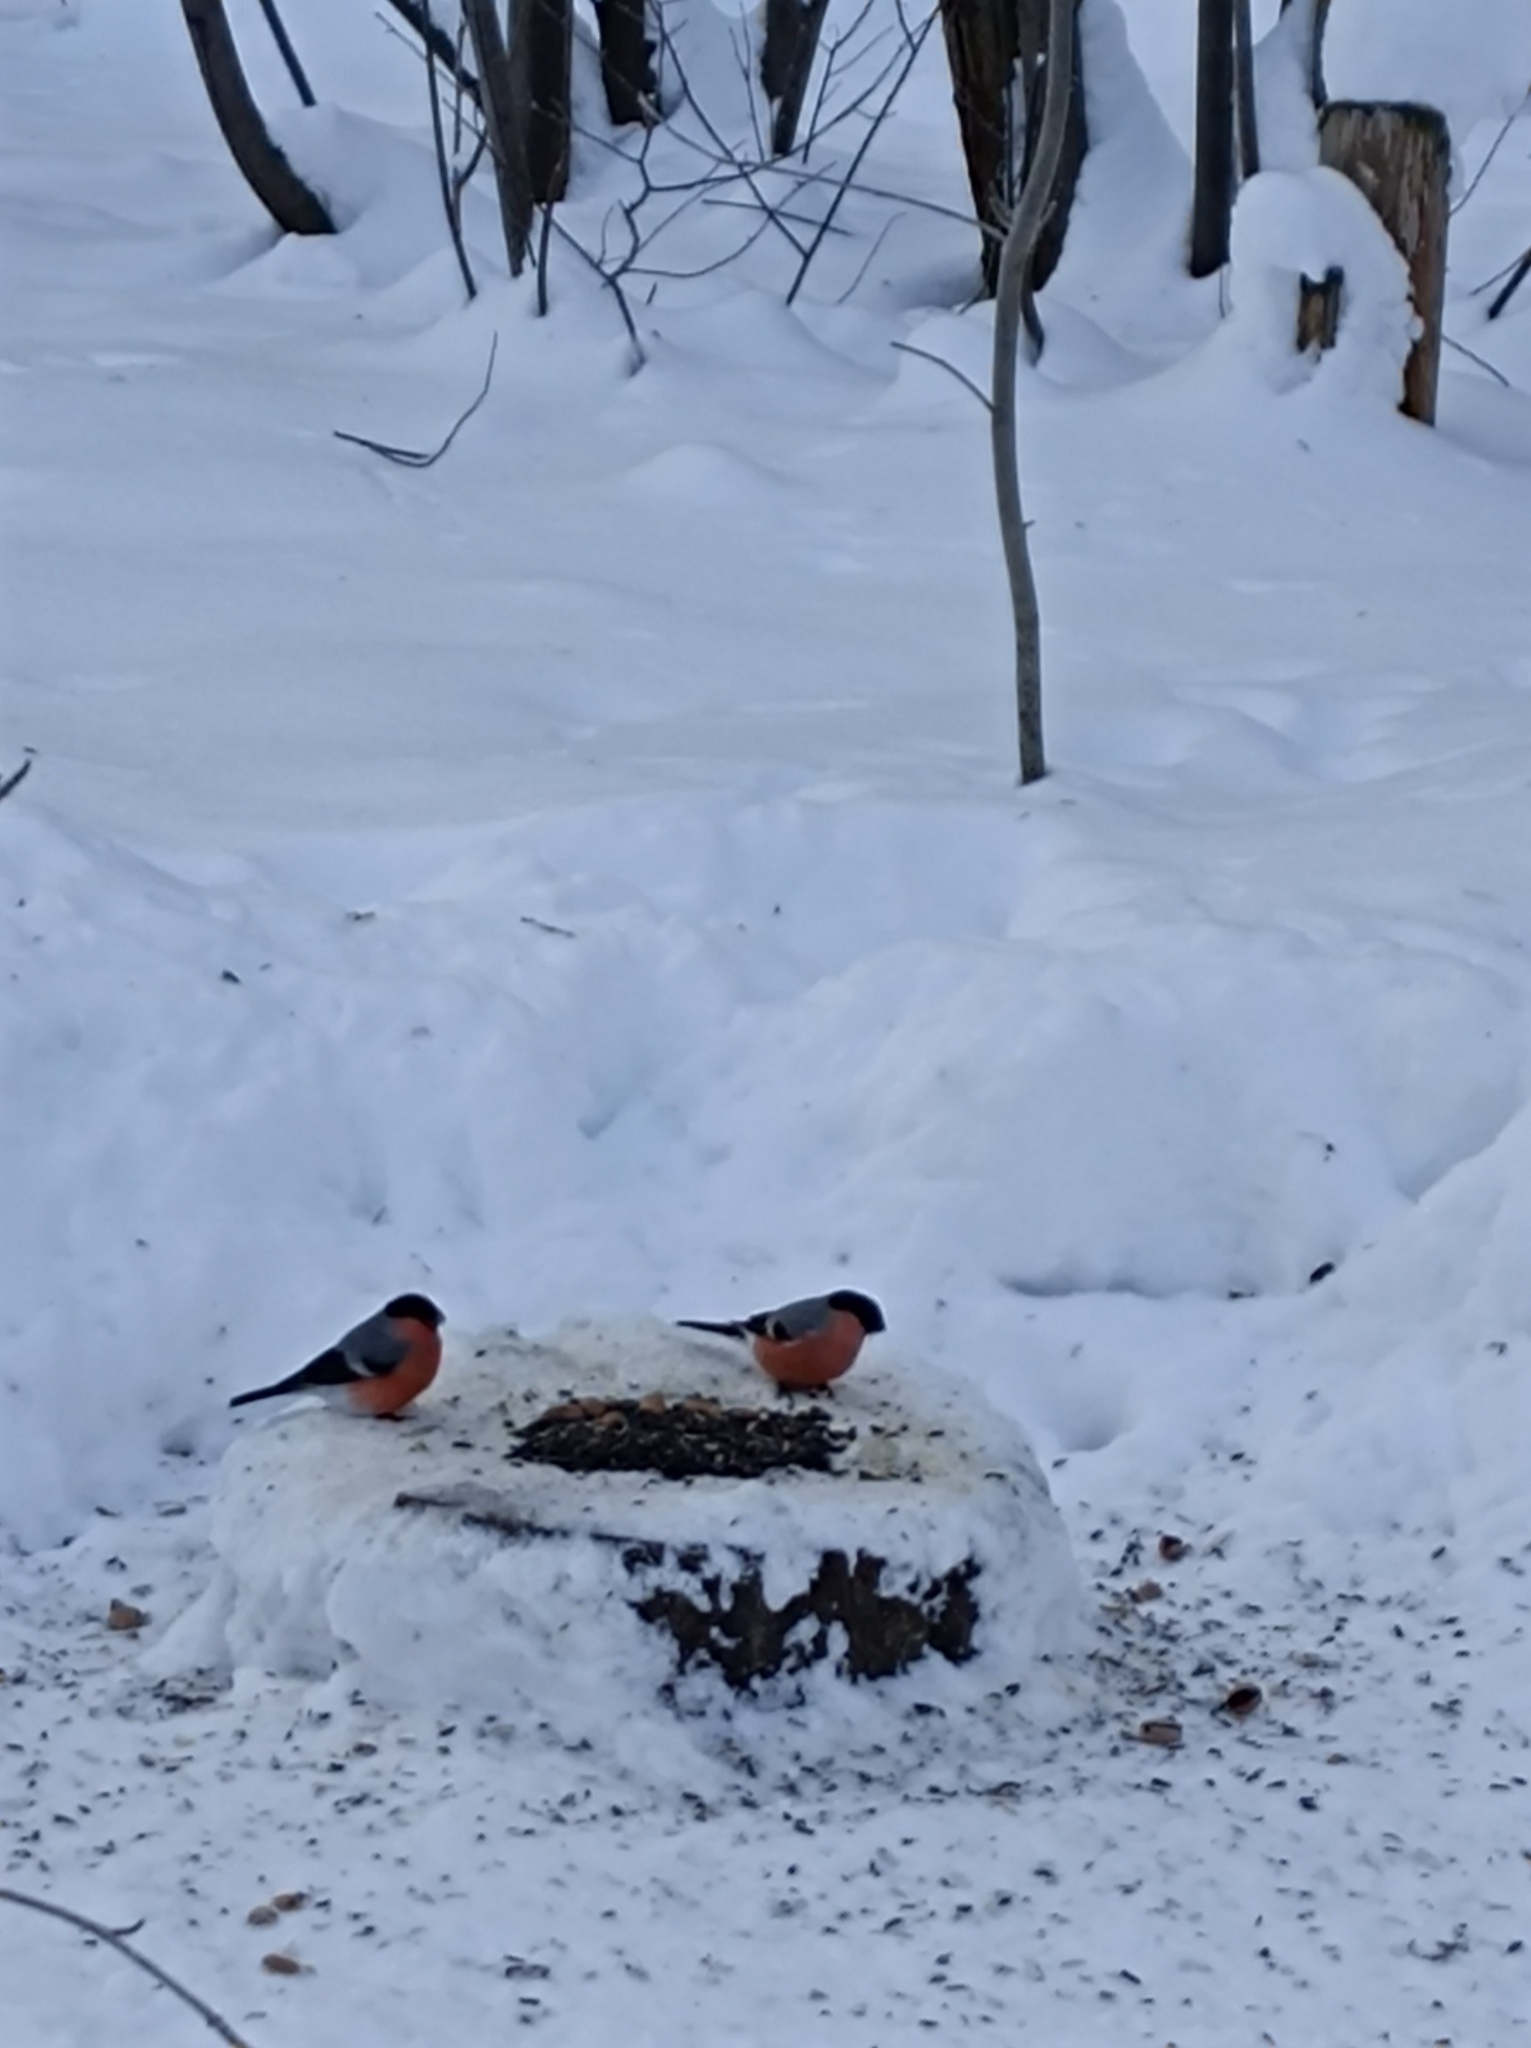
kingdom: Animalia
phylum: Chordata
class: Aves
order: Passeriformes
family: Fringillidae
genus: Pyrrhula
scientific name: Pyrrhula pyrrhula
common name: Eurasian bullfinch
